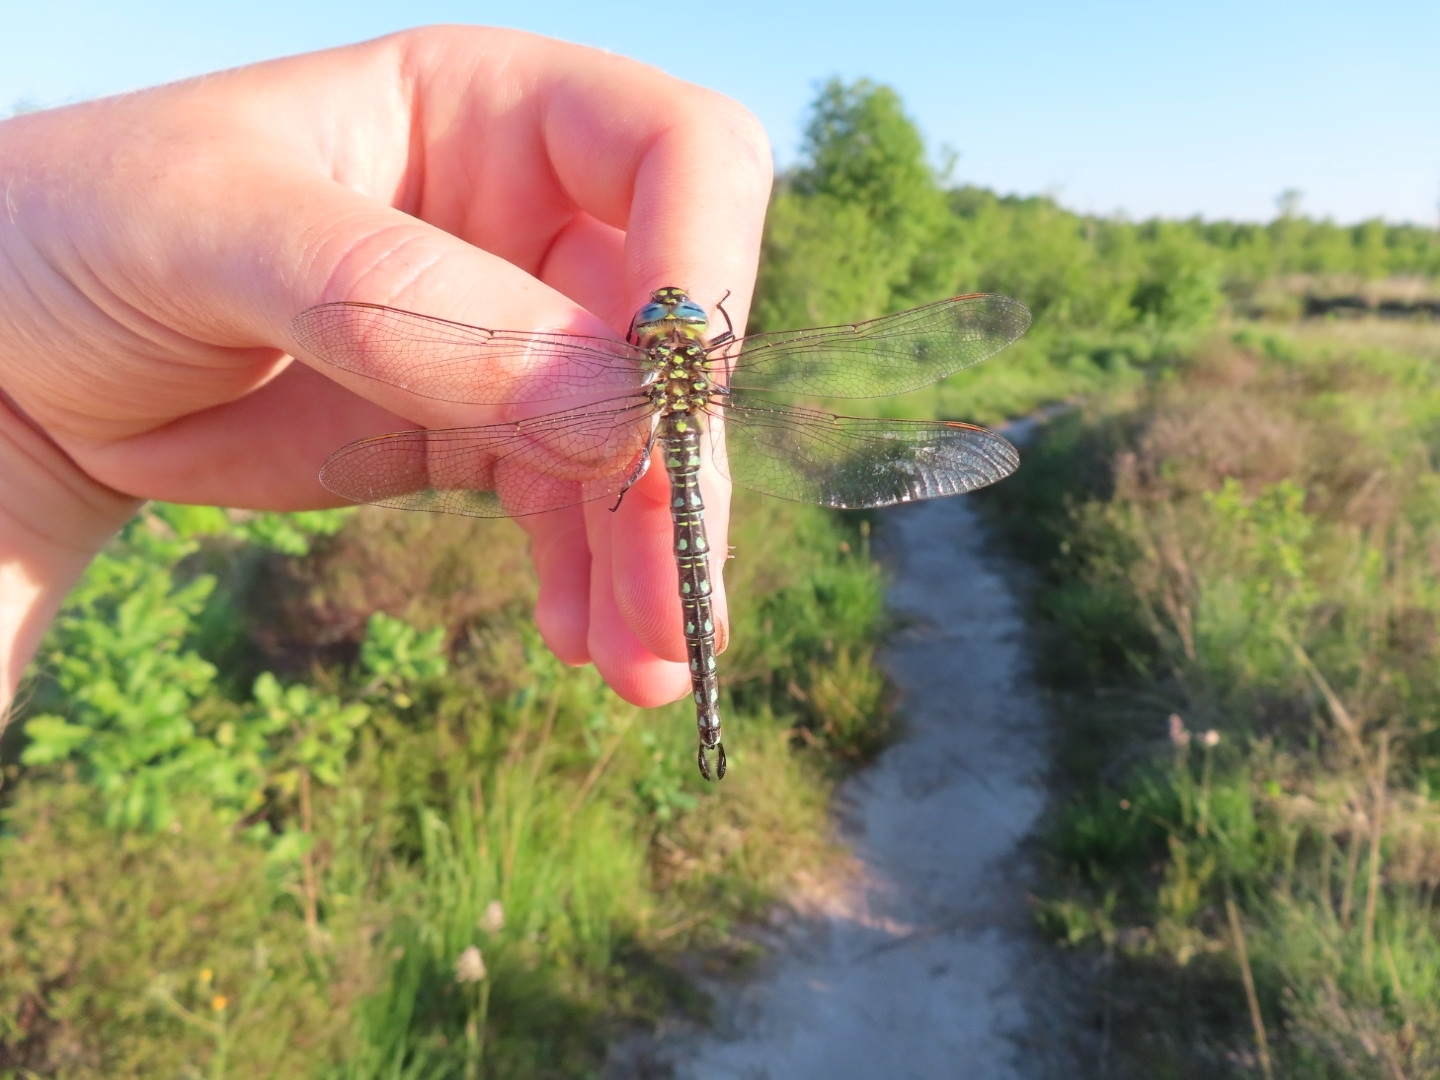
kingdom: Animalia
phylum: Arthropoda
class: Insecta
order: Odonata
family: Aeshnidae
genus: Brachytron
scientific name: Brachytron pratense
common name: Hairy hawker
